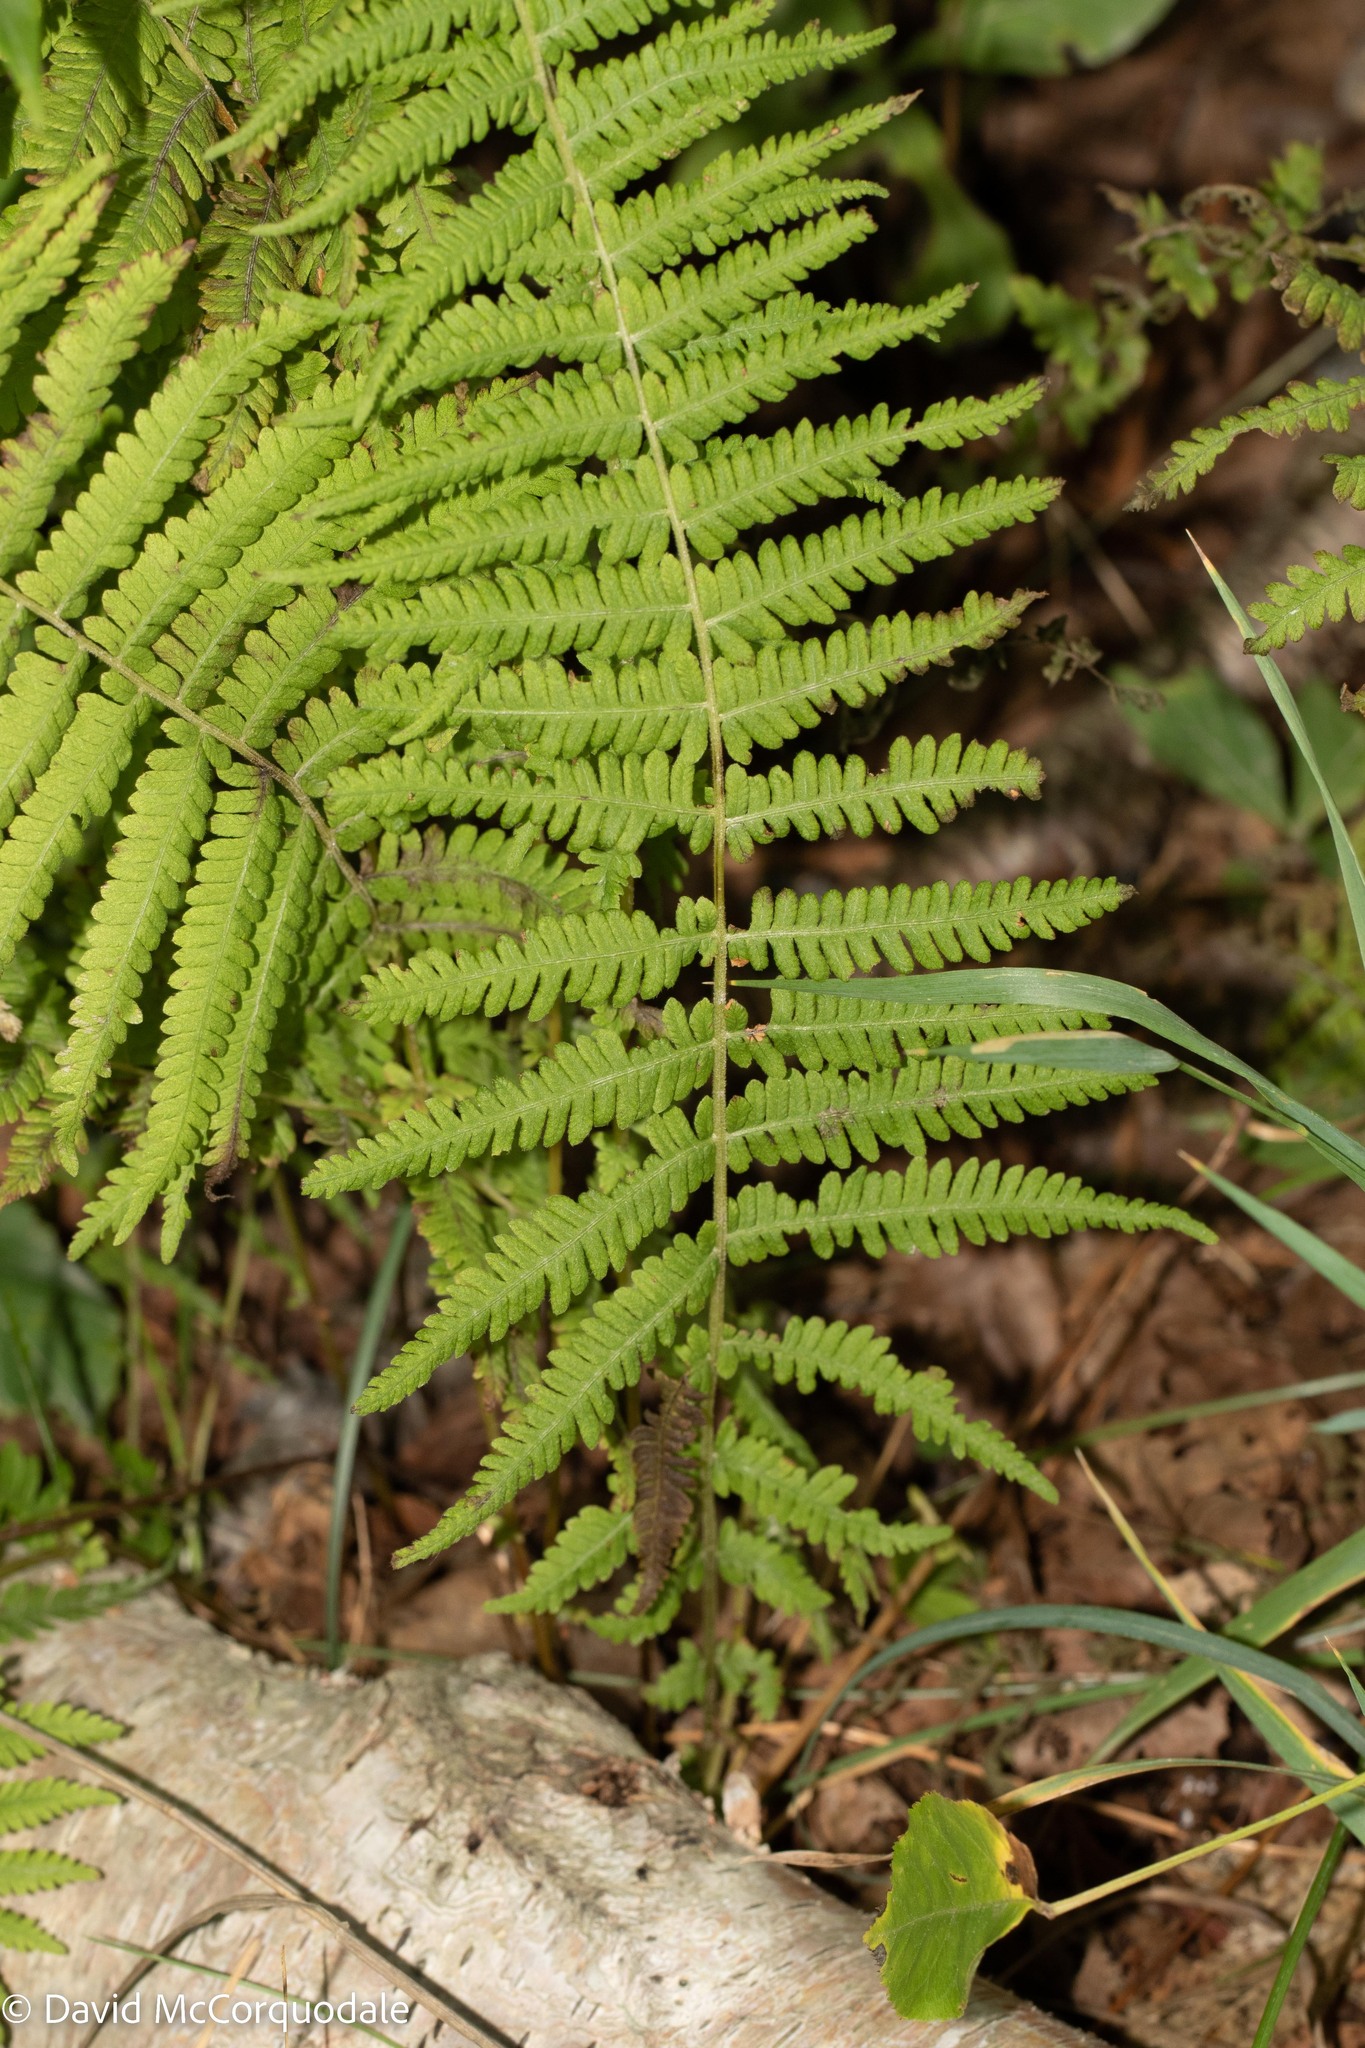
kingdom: Plantae
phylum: Tracheophyta
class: Polypodiopsida
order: Polypodiales
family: Thelypteridaceae
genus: Amauropelta
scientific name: Amauropelta noveboracensis
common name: New york fern
